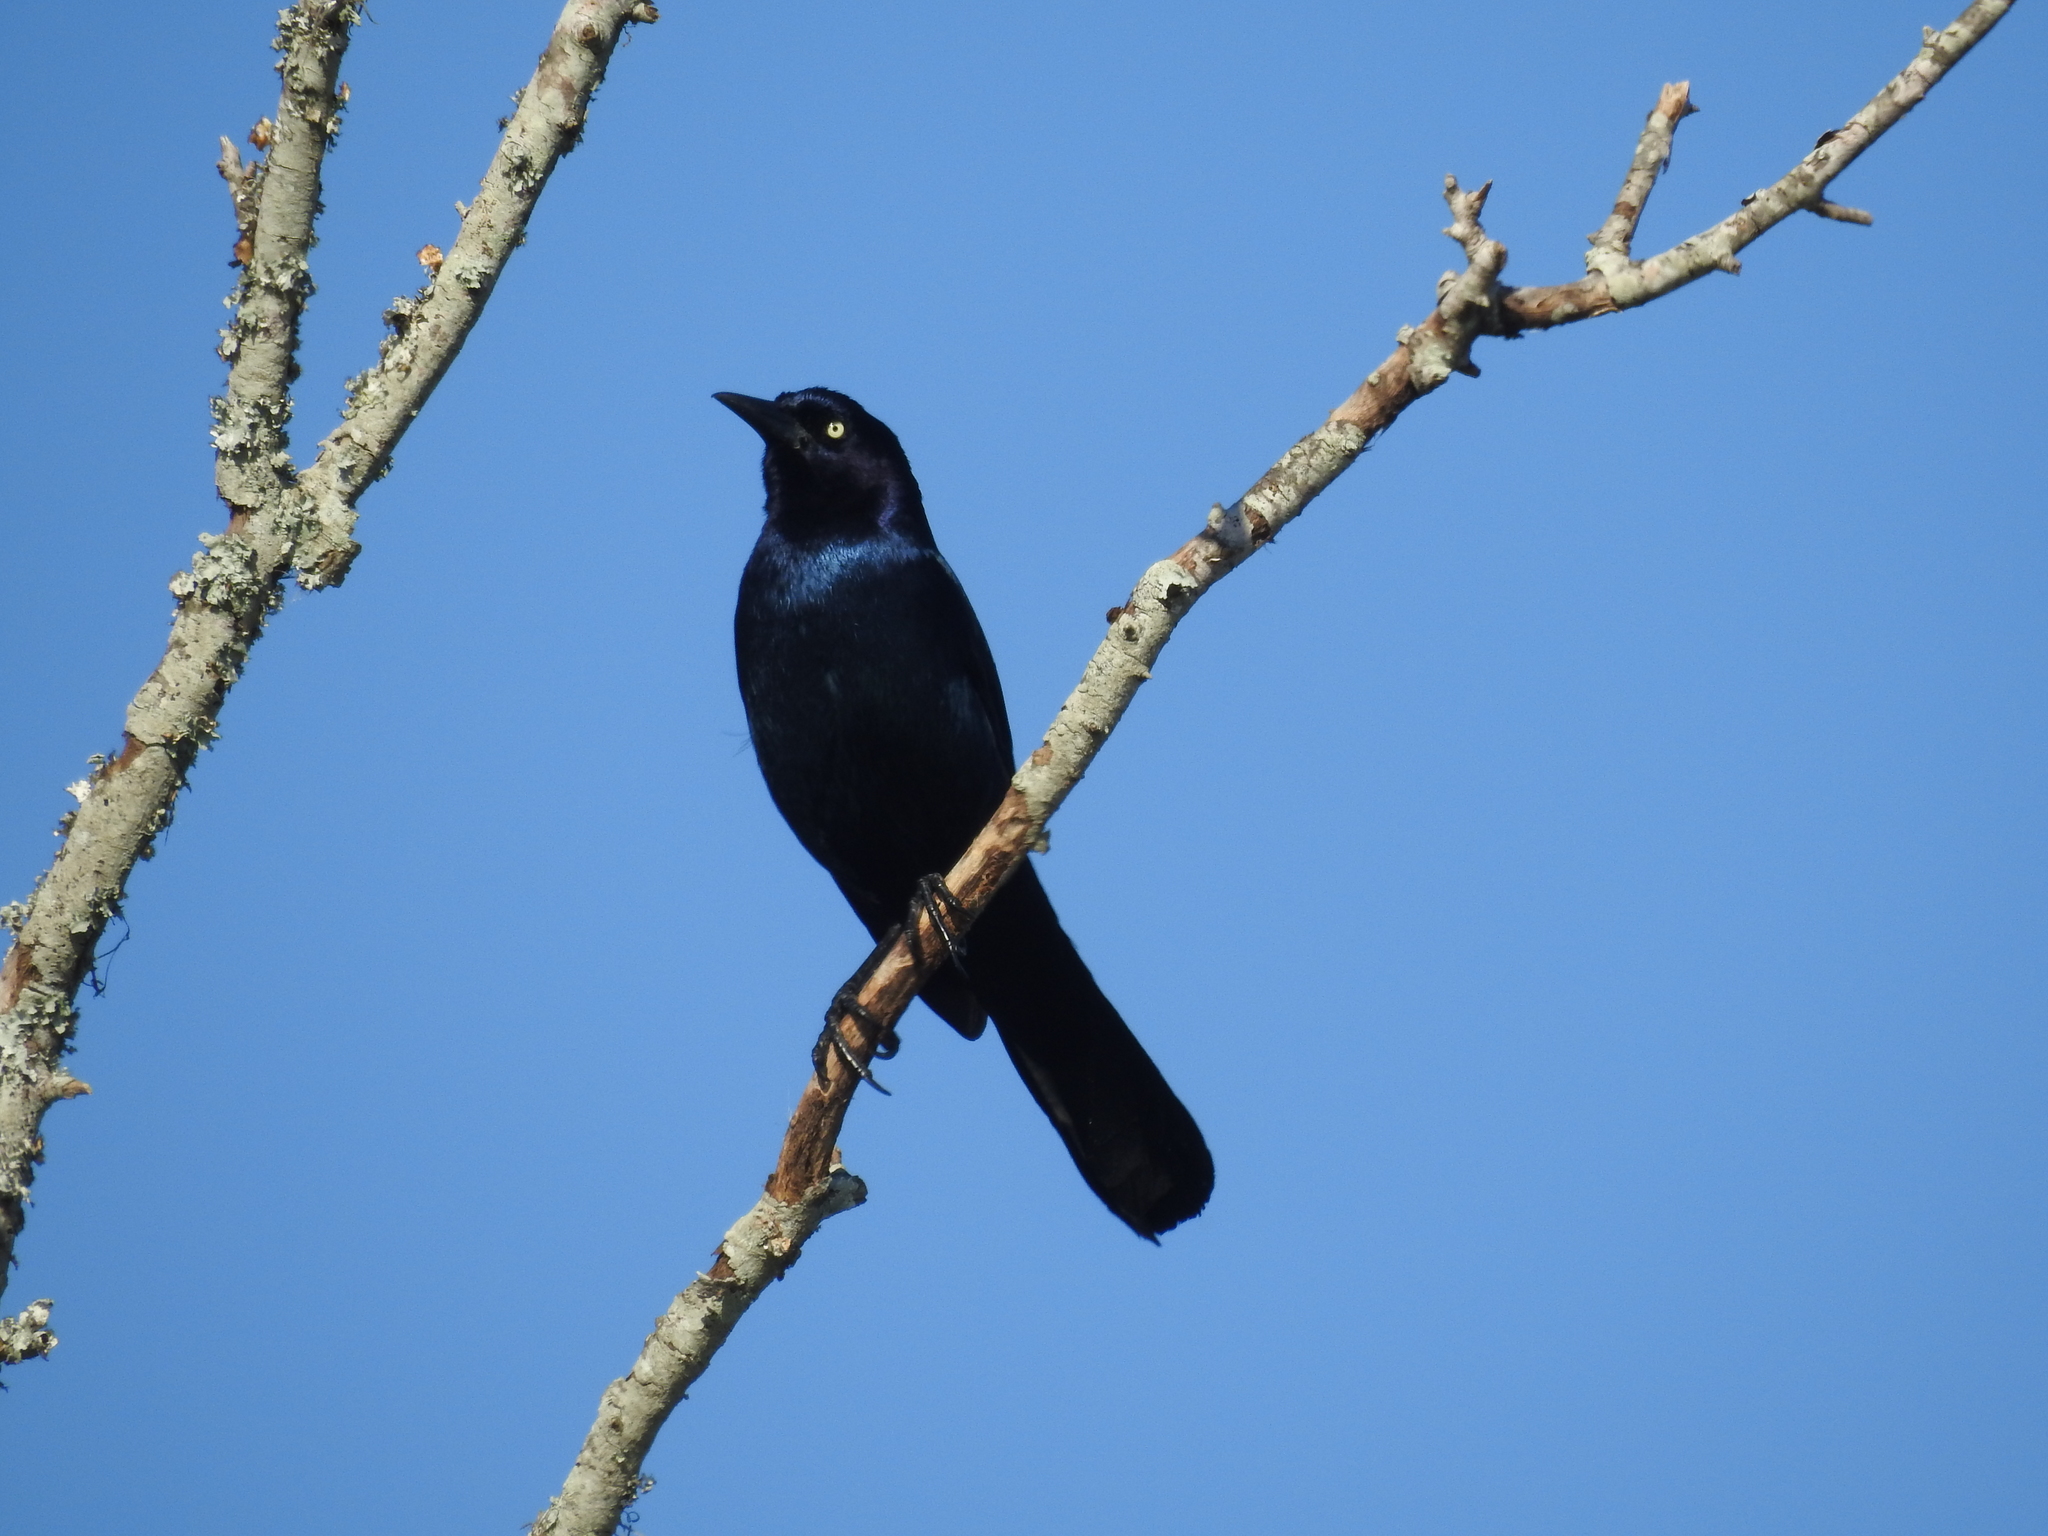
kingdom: Animalia
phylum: Chordata
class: Aves
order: Passeriformes
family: Icteridae
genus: Quiscalus
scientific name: Quiscalus major
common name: Boat-tailed grackle
